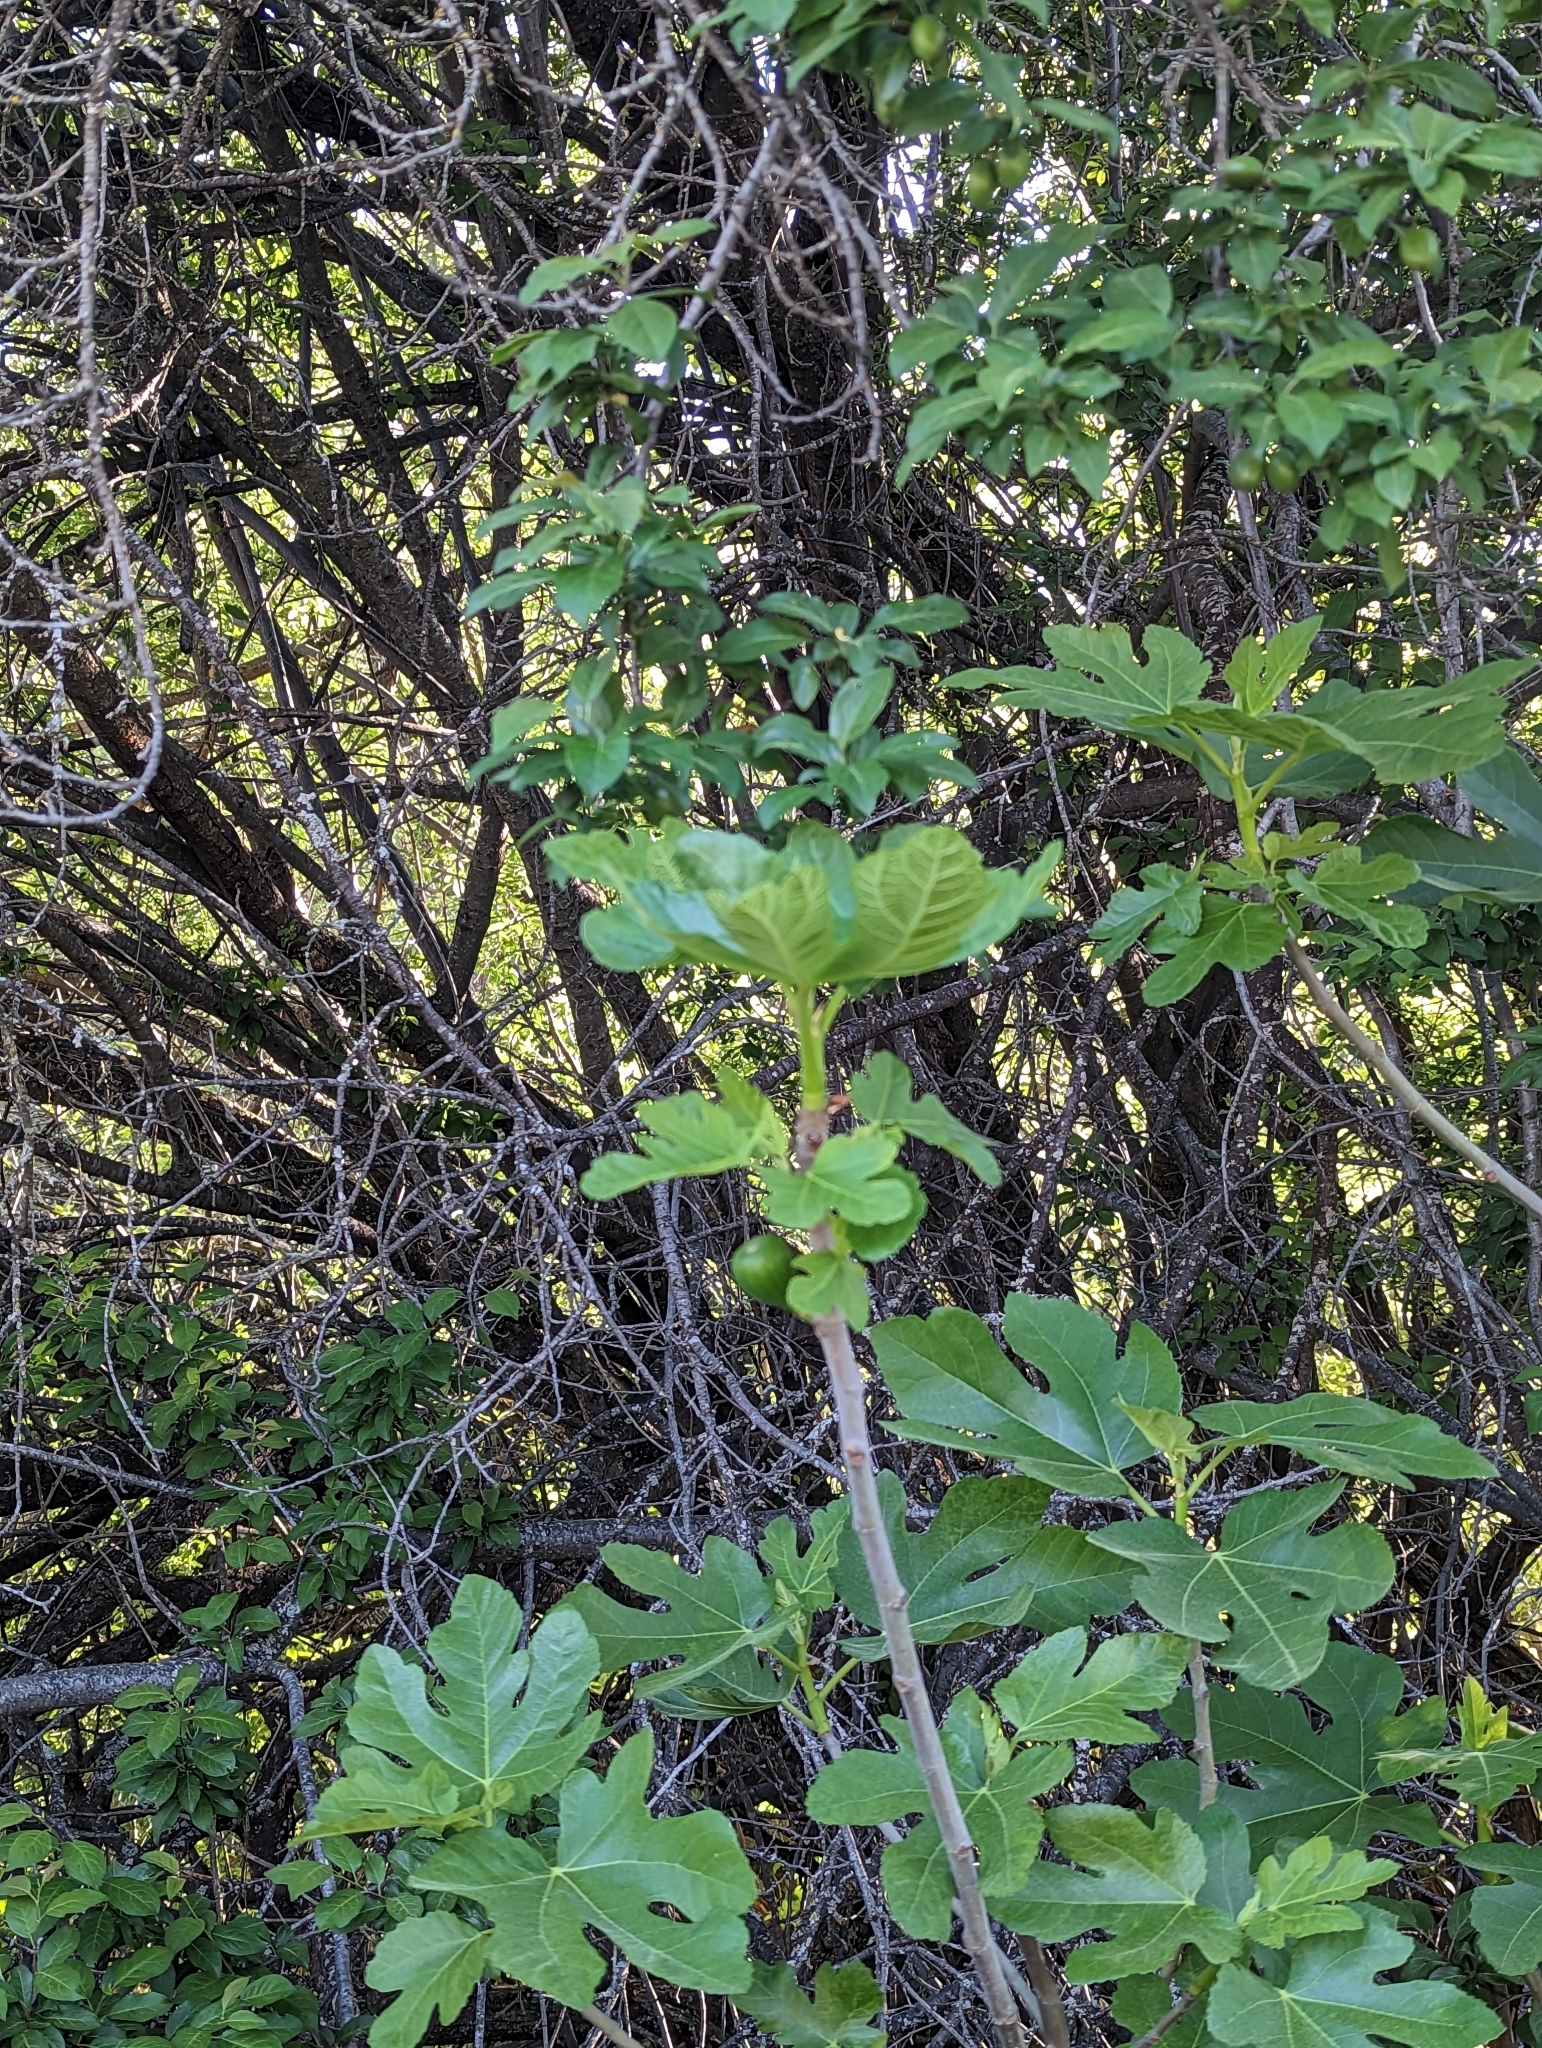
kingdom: Plantae
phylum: Tracheophyta
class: Magnoliopsida
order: Rosales
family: Moraceae
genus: Ficus
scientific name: Ficus carica
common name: Fig
